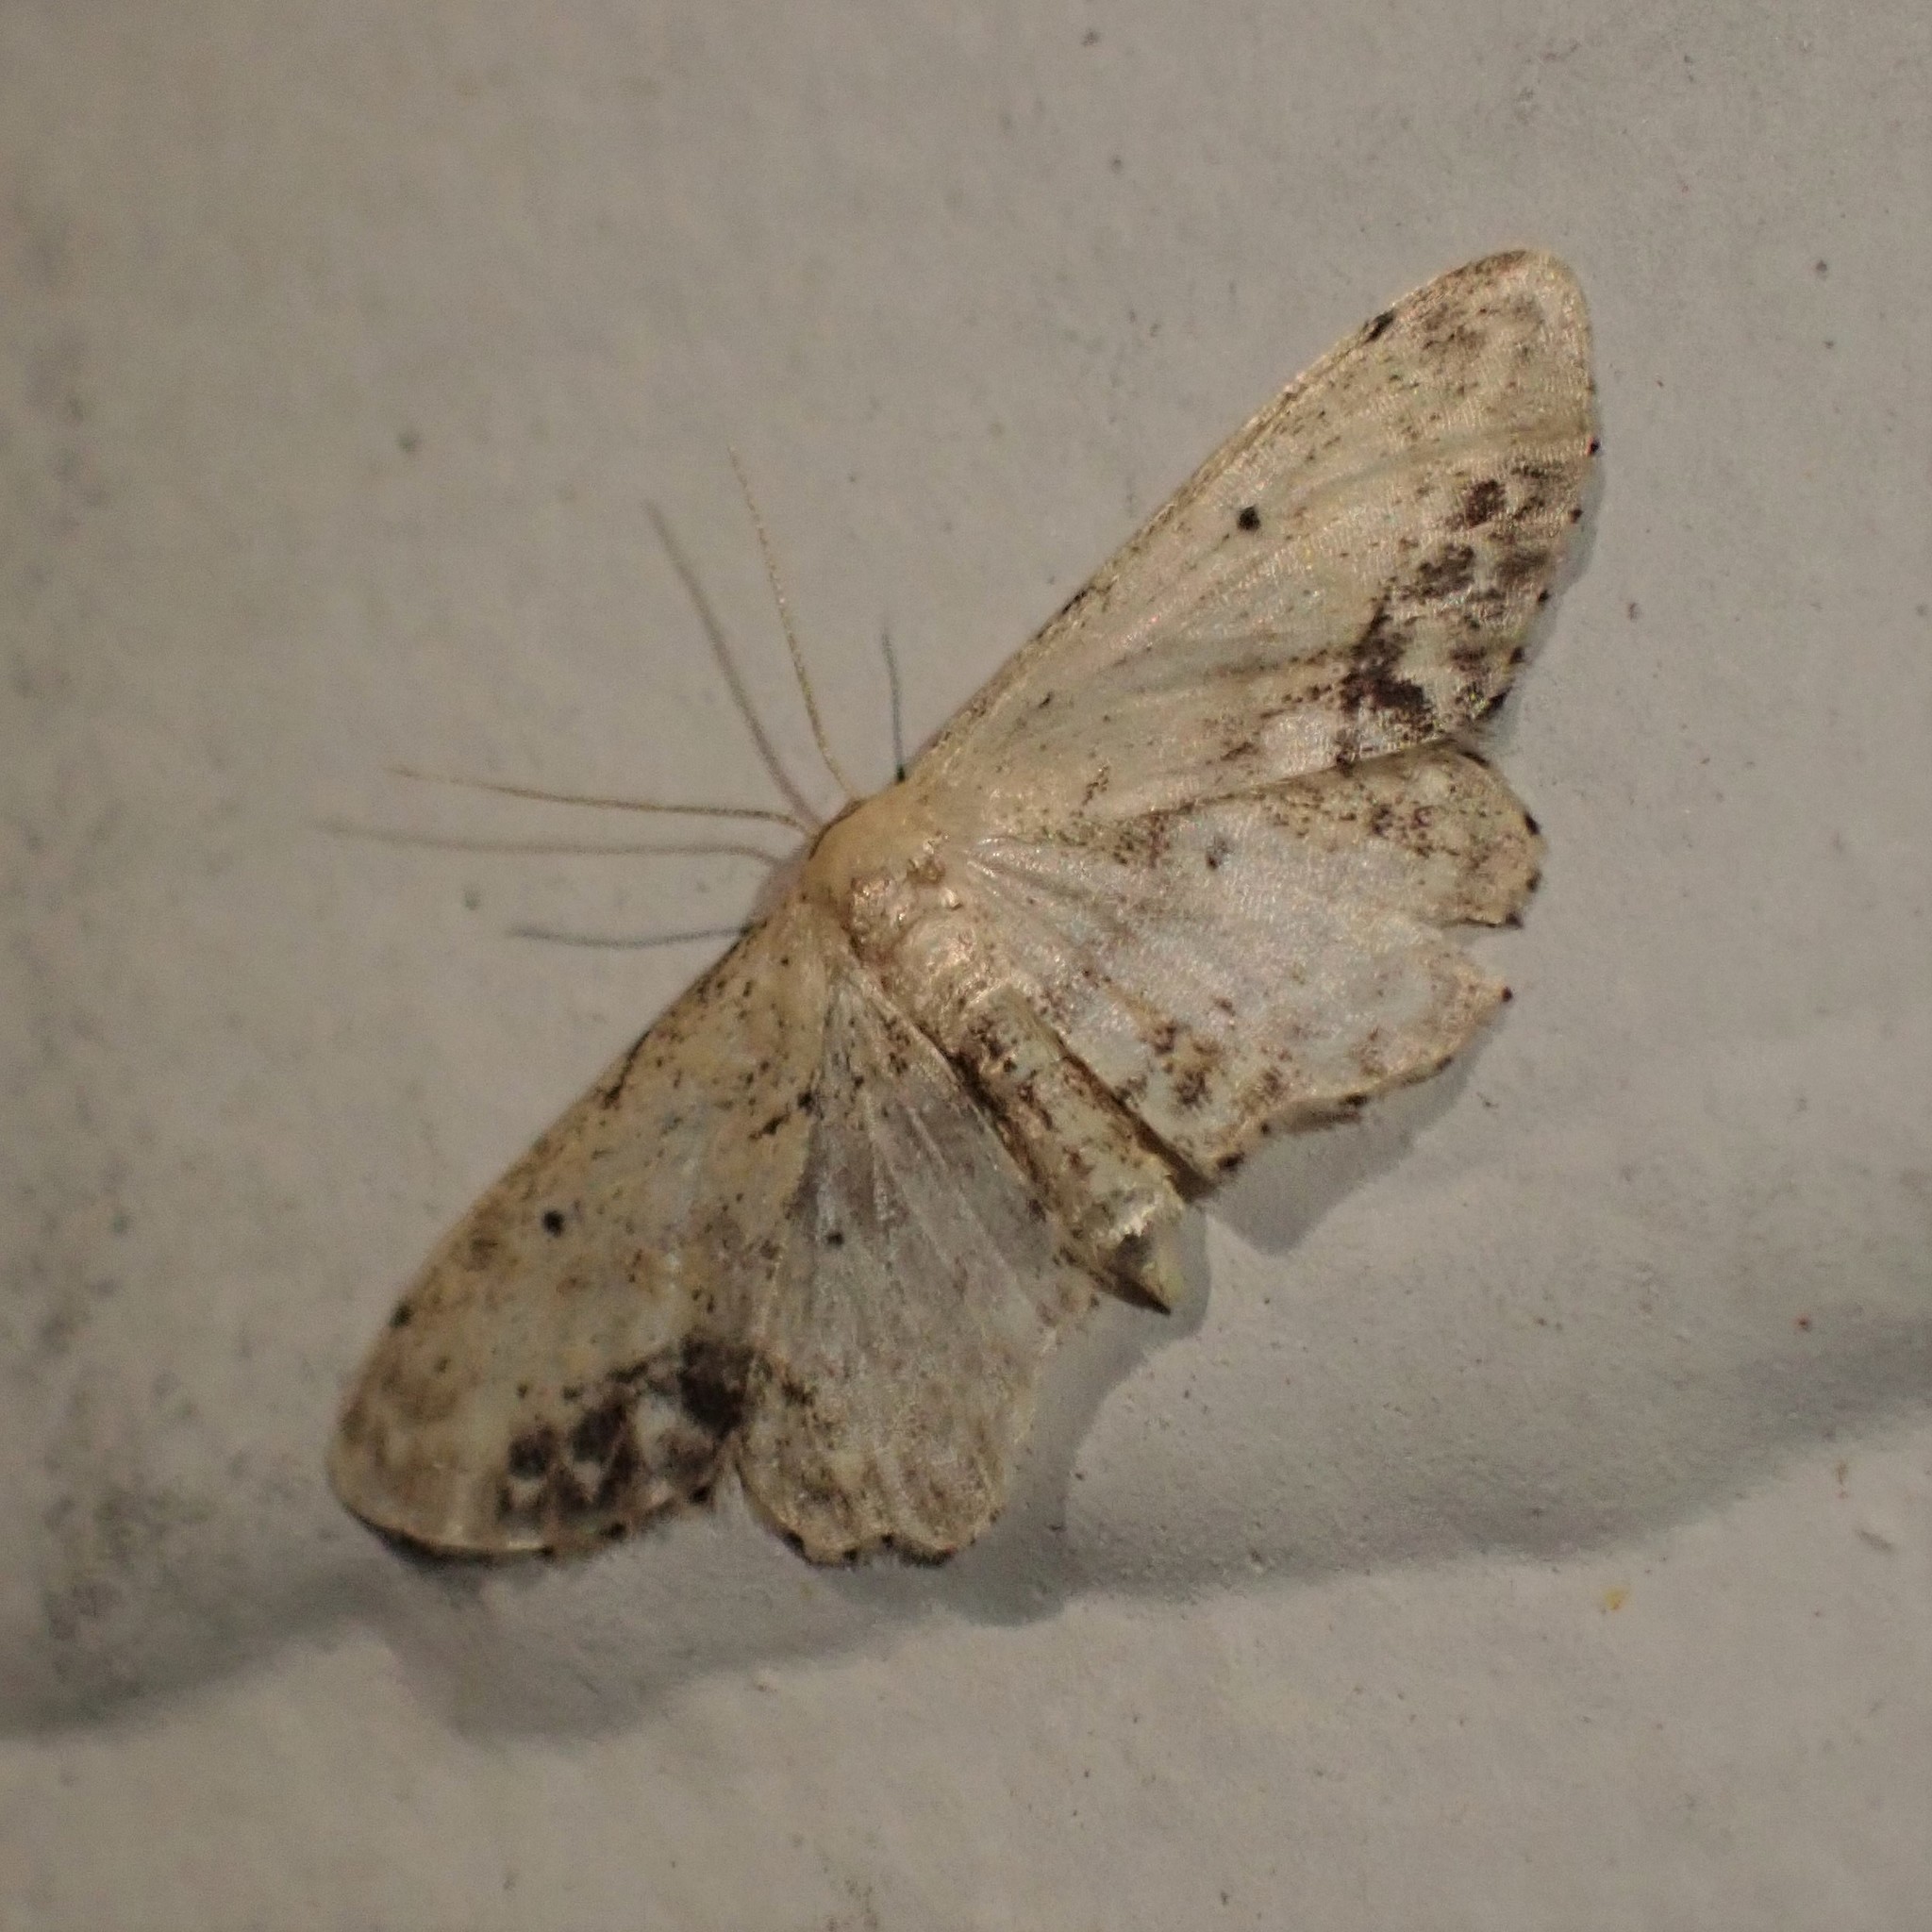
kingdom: Animalia
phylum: Arthropoda
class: Insecta
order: Lepidoptera
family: Geometridae
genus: Idaea
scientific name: Idaea dimidiata
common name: Single-dotted wave
